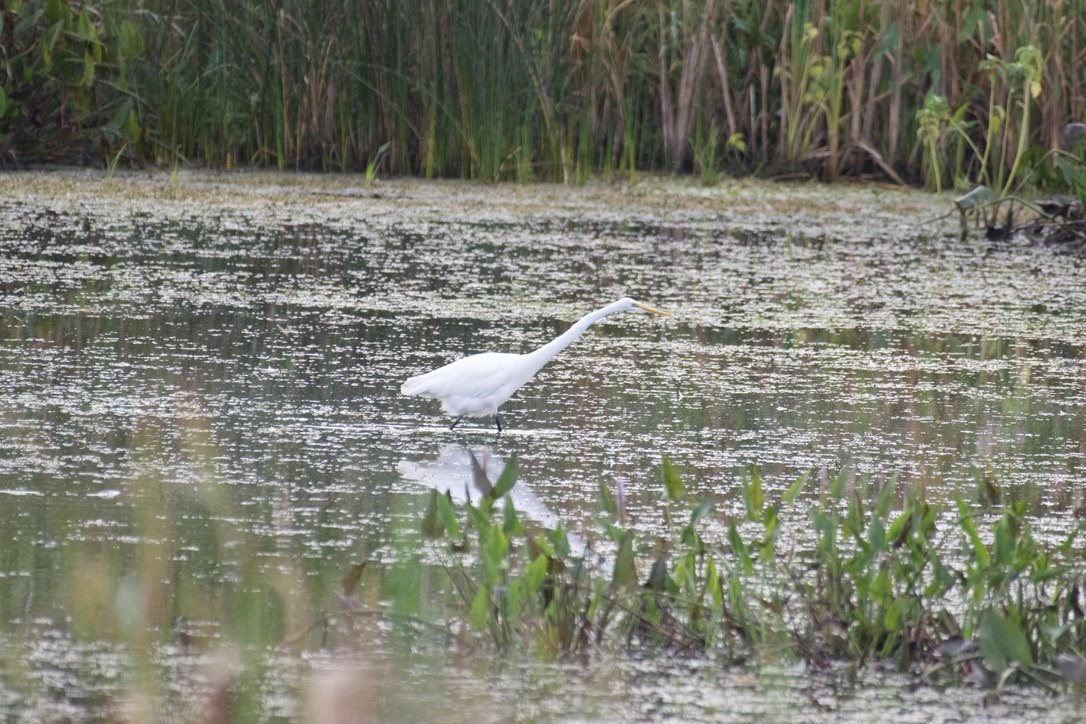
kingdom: Animalia
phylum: Chordata
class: Aves
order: Pelecaniformes
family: Ardeidae
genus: Ardea
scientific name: Ardea alba
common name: Great egret
